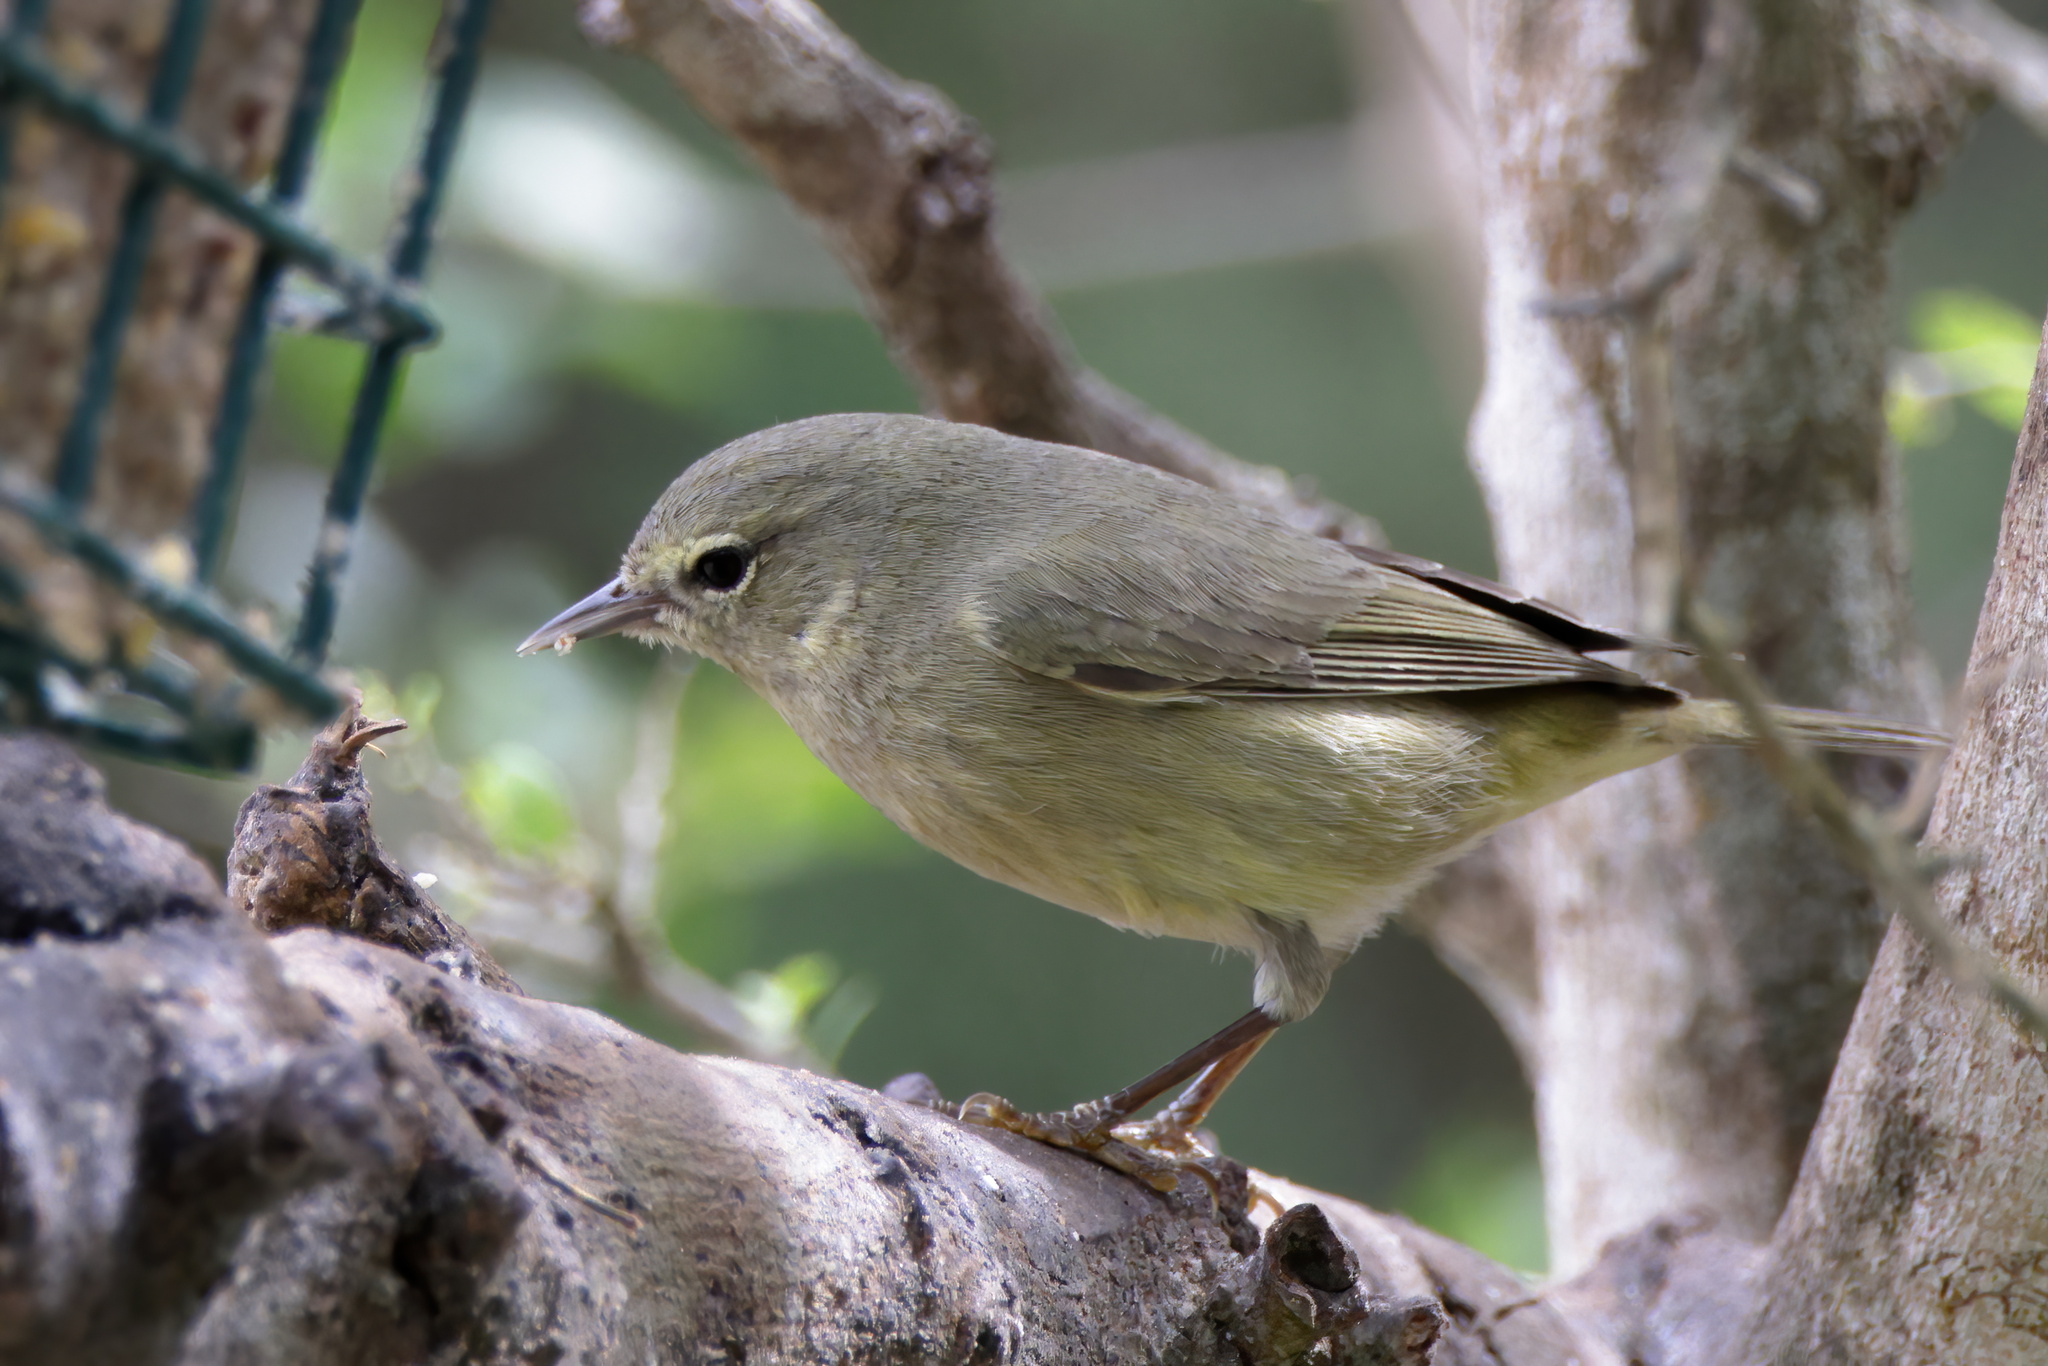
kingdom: Animalia
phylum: Chordata
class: Aves
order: Passeriformes
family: Parulidae
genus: Leiothlypis
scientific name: Leiothlypis celata
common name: Orange-crowned warbler
